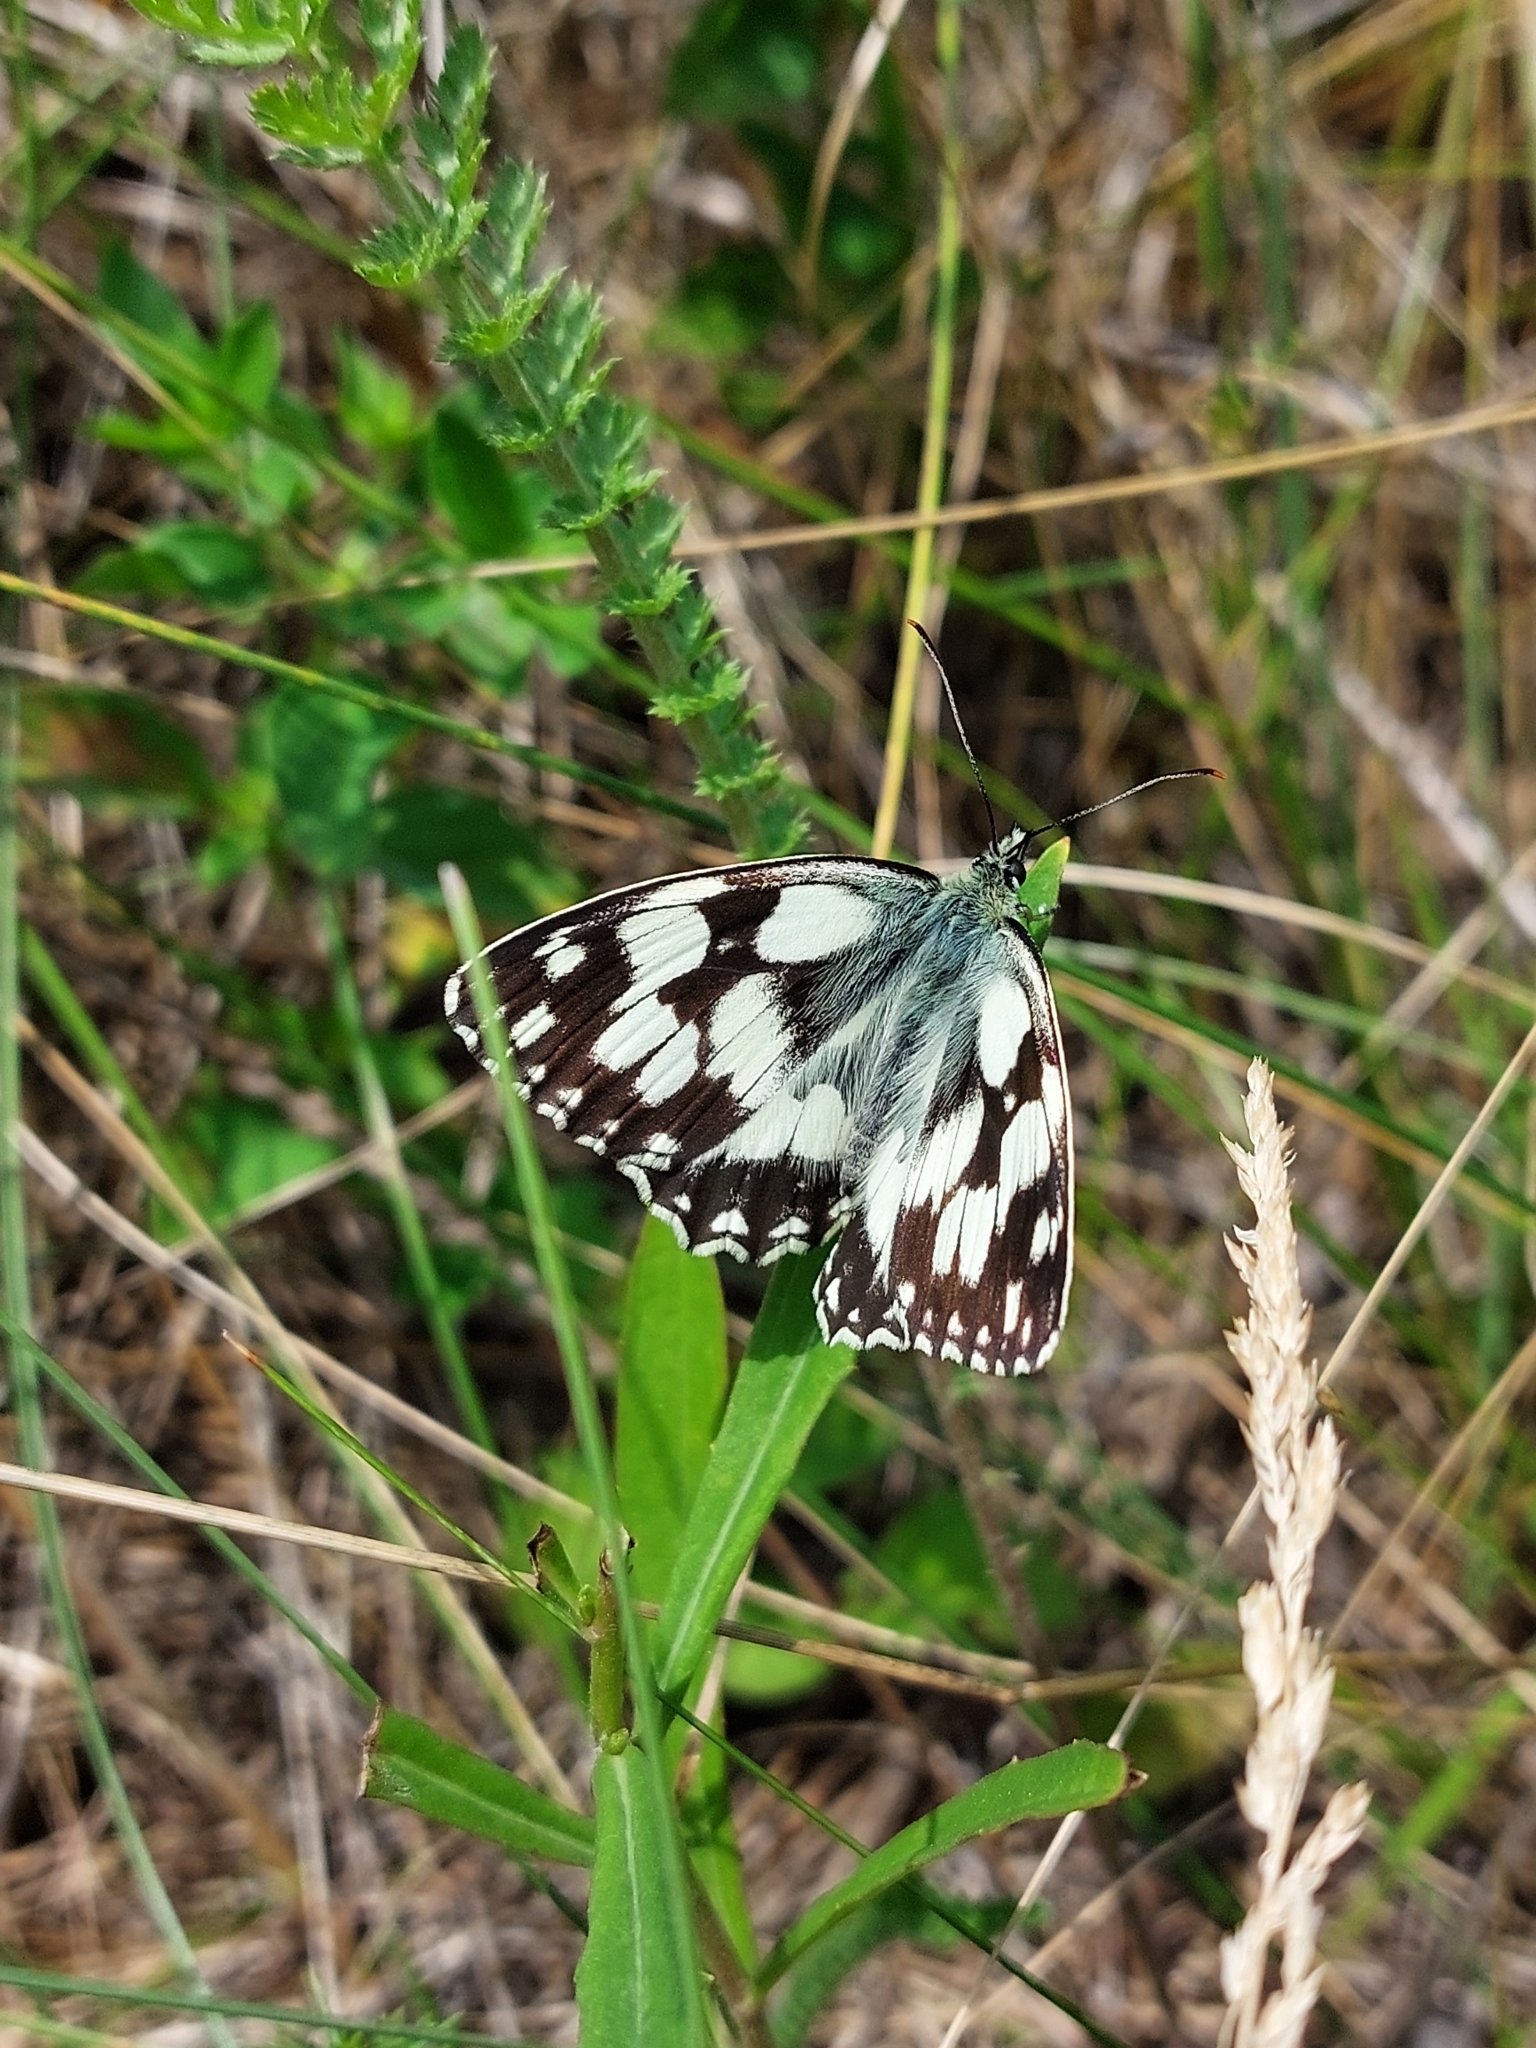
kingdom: Animalia
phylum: Arthropoda
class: Insecta
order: Lepidoptera
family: Nymphalidae
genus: Melanargia
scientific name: Melanargia galathea
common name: Marbled white
